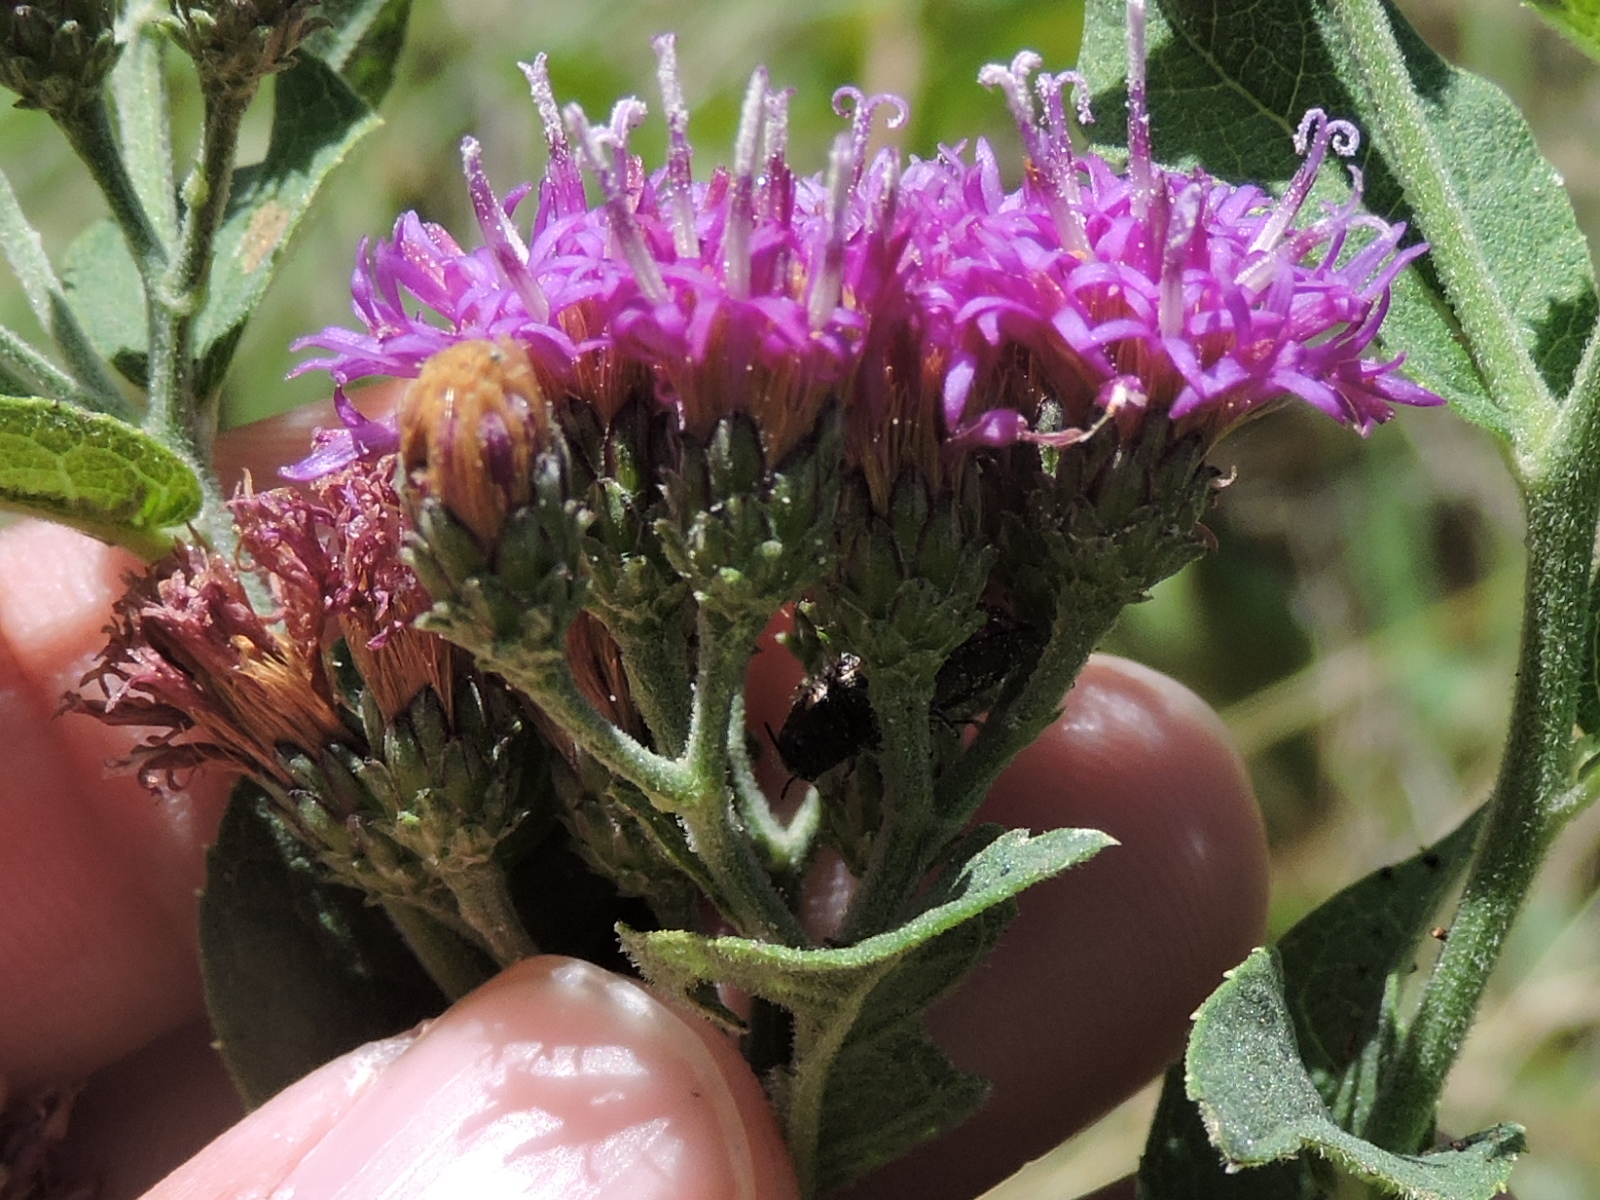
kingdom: Plantae
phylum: Tracheophyta
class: Magnoliopsida
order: Asterales
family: Asteraceae
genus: Vernonia
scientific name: Vernonia baldwinii
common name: Western ironweed
